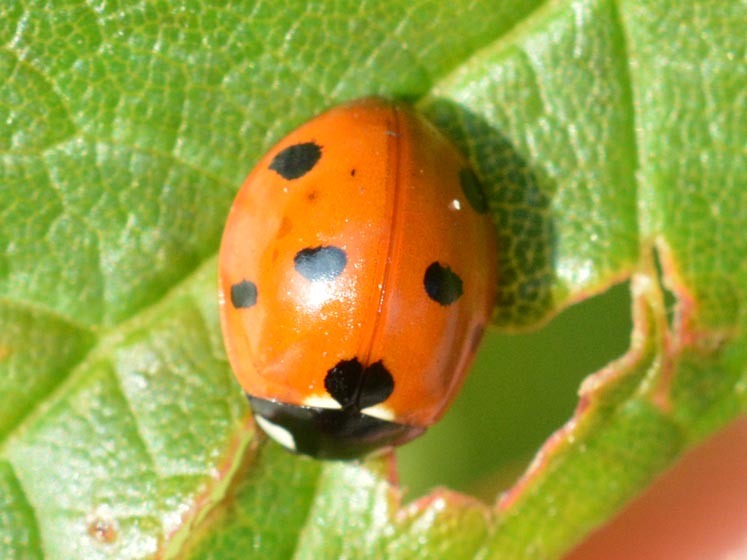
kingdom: Animalia
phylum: Arthropoda
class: Insecta
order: Coleoptera
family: Coccinellidae
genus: Coccinella
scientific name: Coccinella septempunctata
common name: Sevenspotted lady beetle
